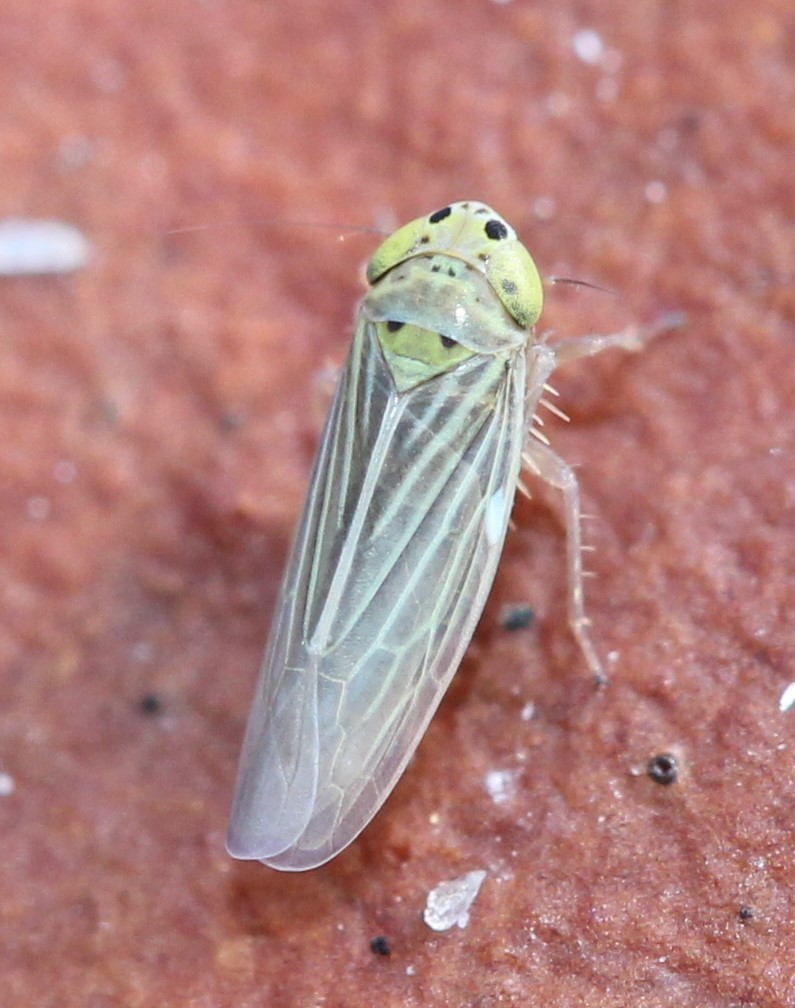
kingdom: Animalia
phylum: Arthropoda
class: Insecta
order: Hemiptera
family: Cicadellidae
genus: Graminella
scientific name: Graminella cognita
